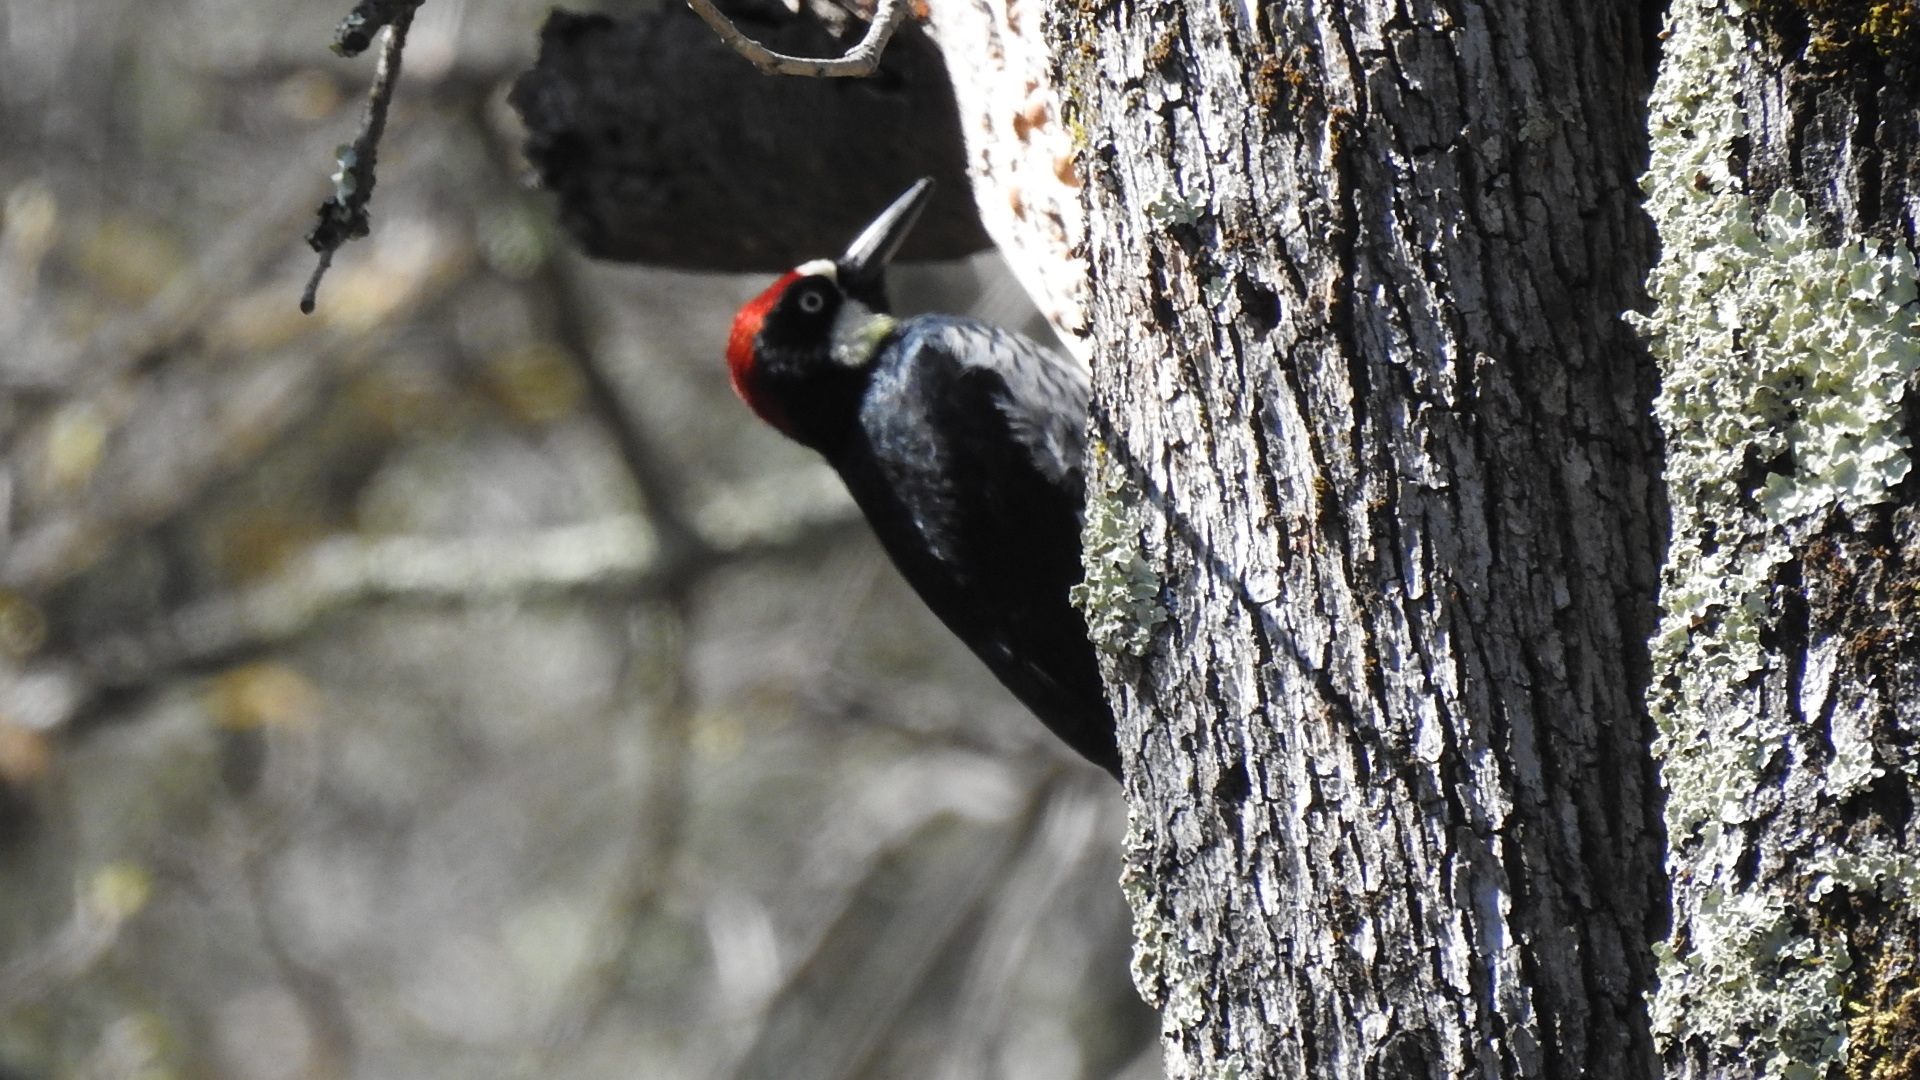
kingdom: Animalia
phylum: Chordata
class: Aves
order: Piciformes
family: Picidae
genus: Melanerpes
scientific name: Melanerpes formicivorus
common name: Acorn woodpecker
